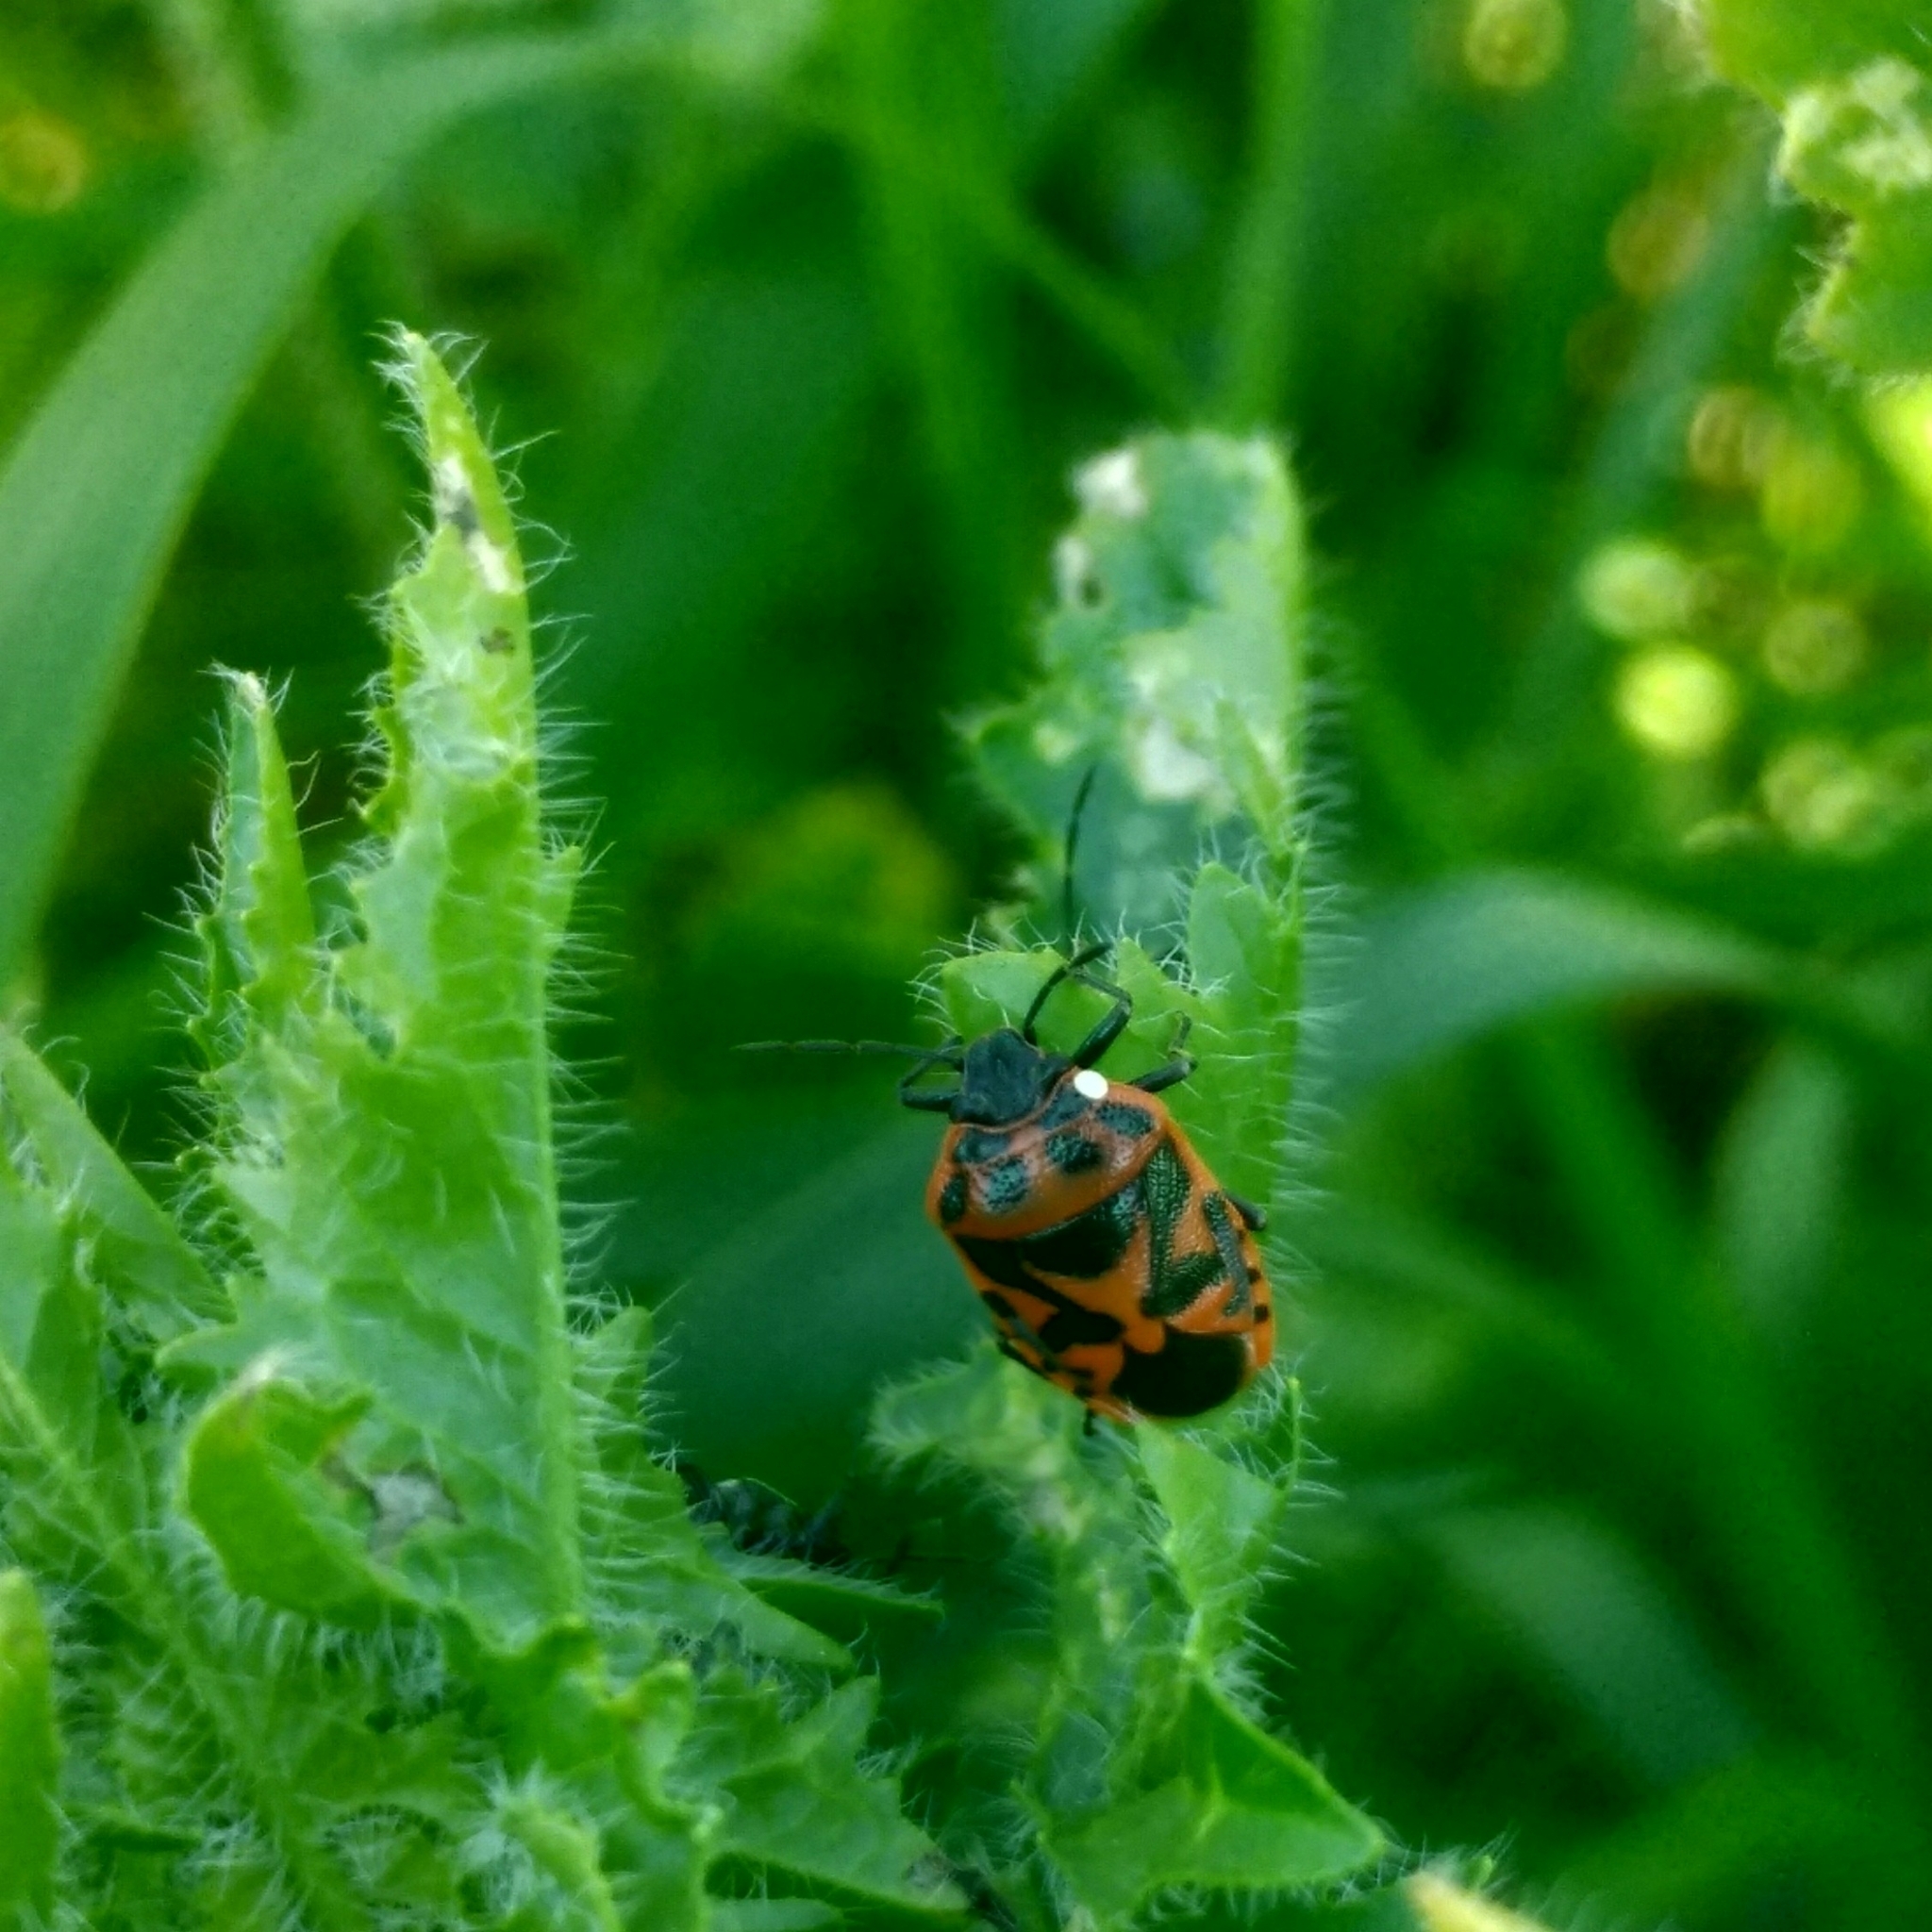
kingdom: Animalia
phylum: Arthropoda
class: Insecta
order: Hemiptera
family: Pentatomidae
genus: Eurydema
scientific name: Eurydema ornata
